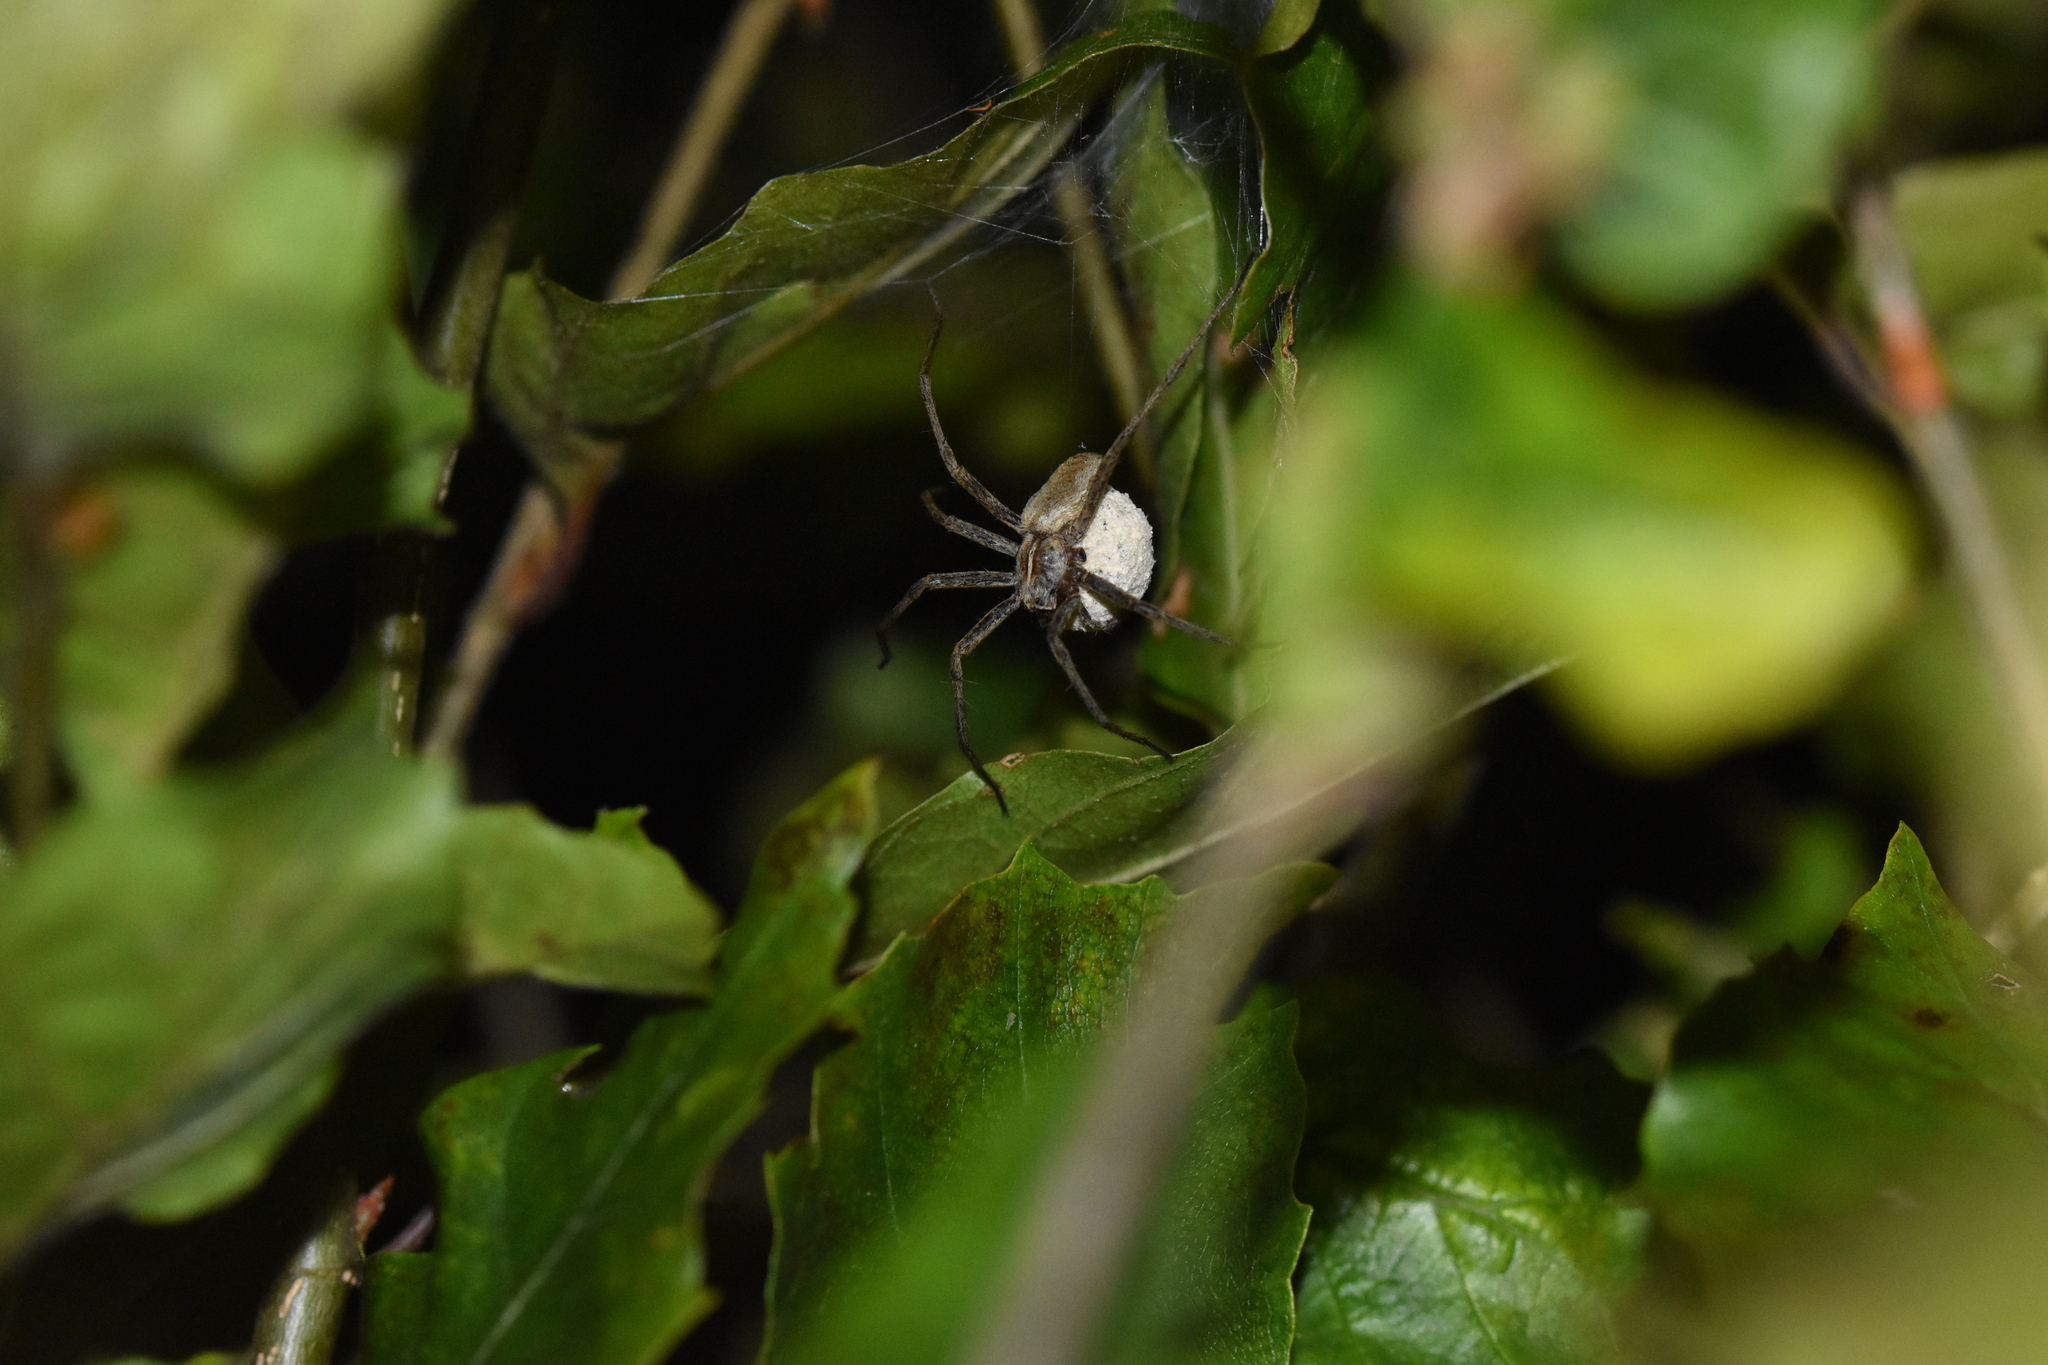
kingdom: Animalia
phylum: Arthropoda
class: Arachnida
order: Araneae
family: Pisauridae
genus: Pisaura
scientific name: Pisaura mirabilis
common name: Tent spider
